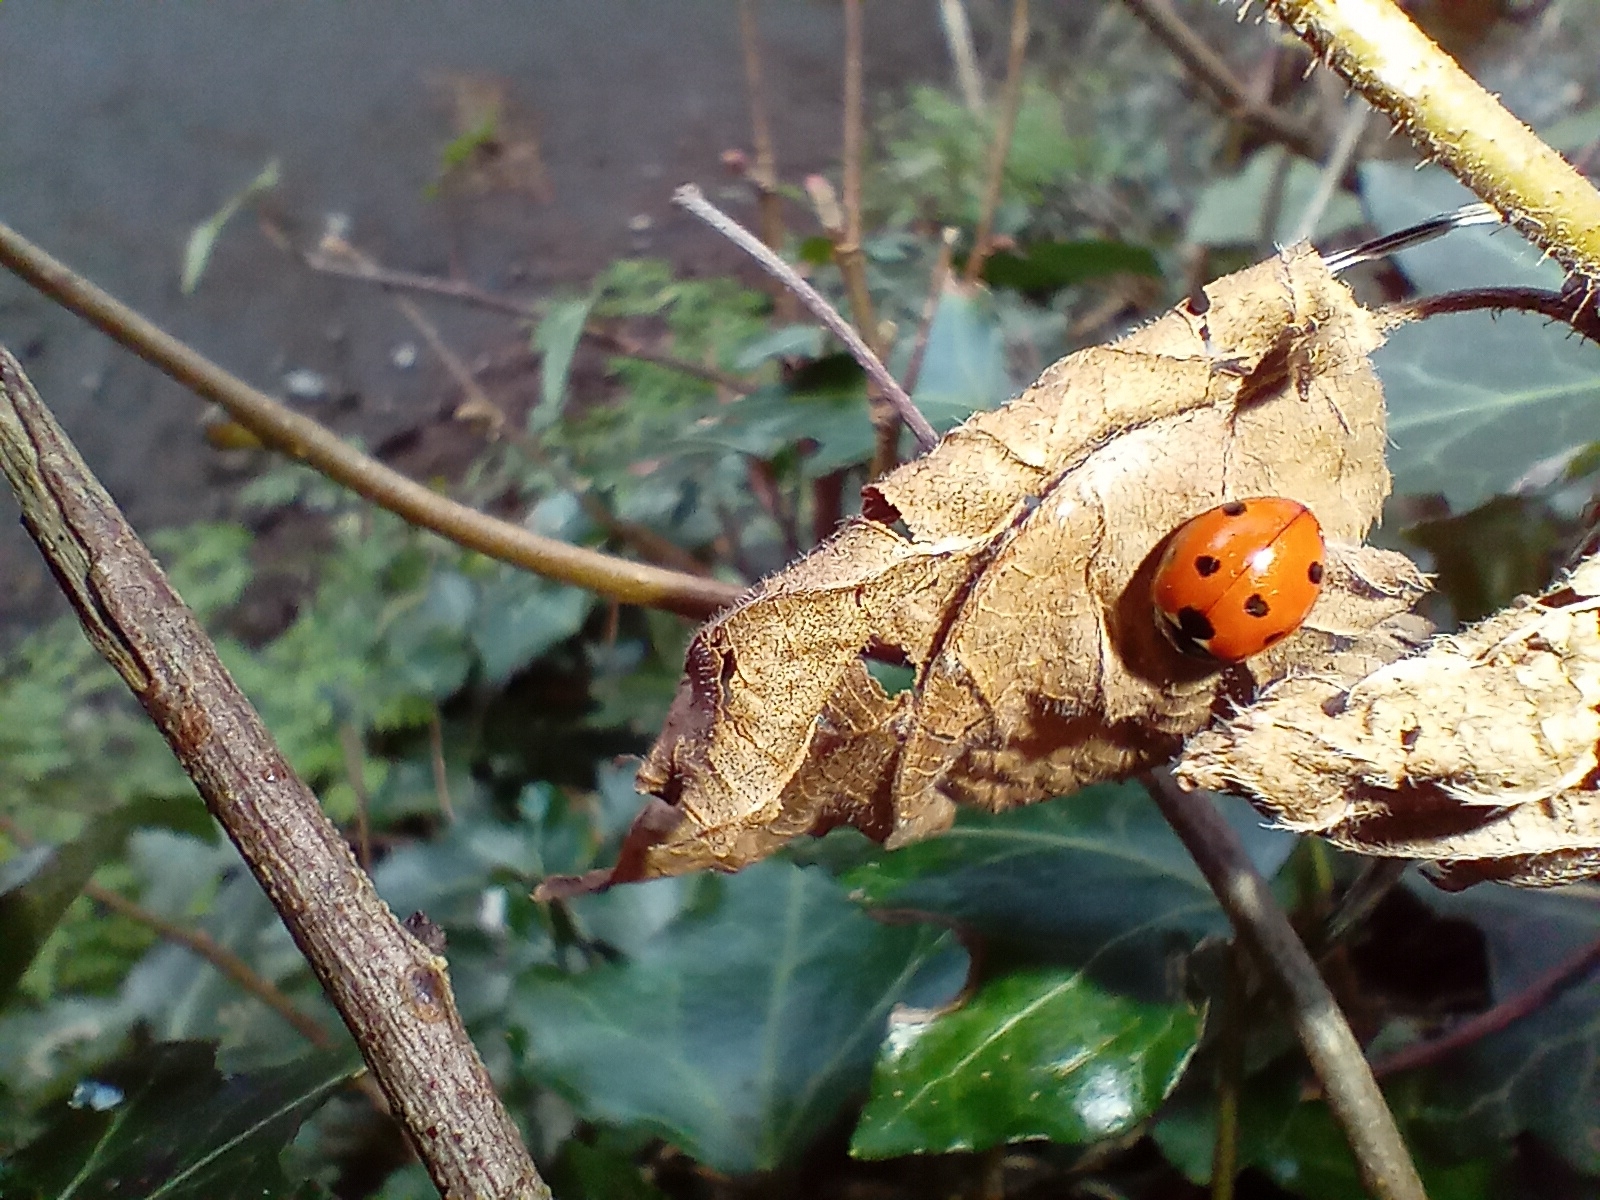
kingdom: Animalia
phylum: Arthropoda
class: Insecta
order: Coleoptera
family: Coccinellidae
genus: Coccinella
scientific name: Coccinella septempunctata
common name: Sevenspotted lady beetle
